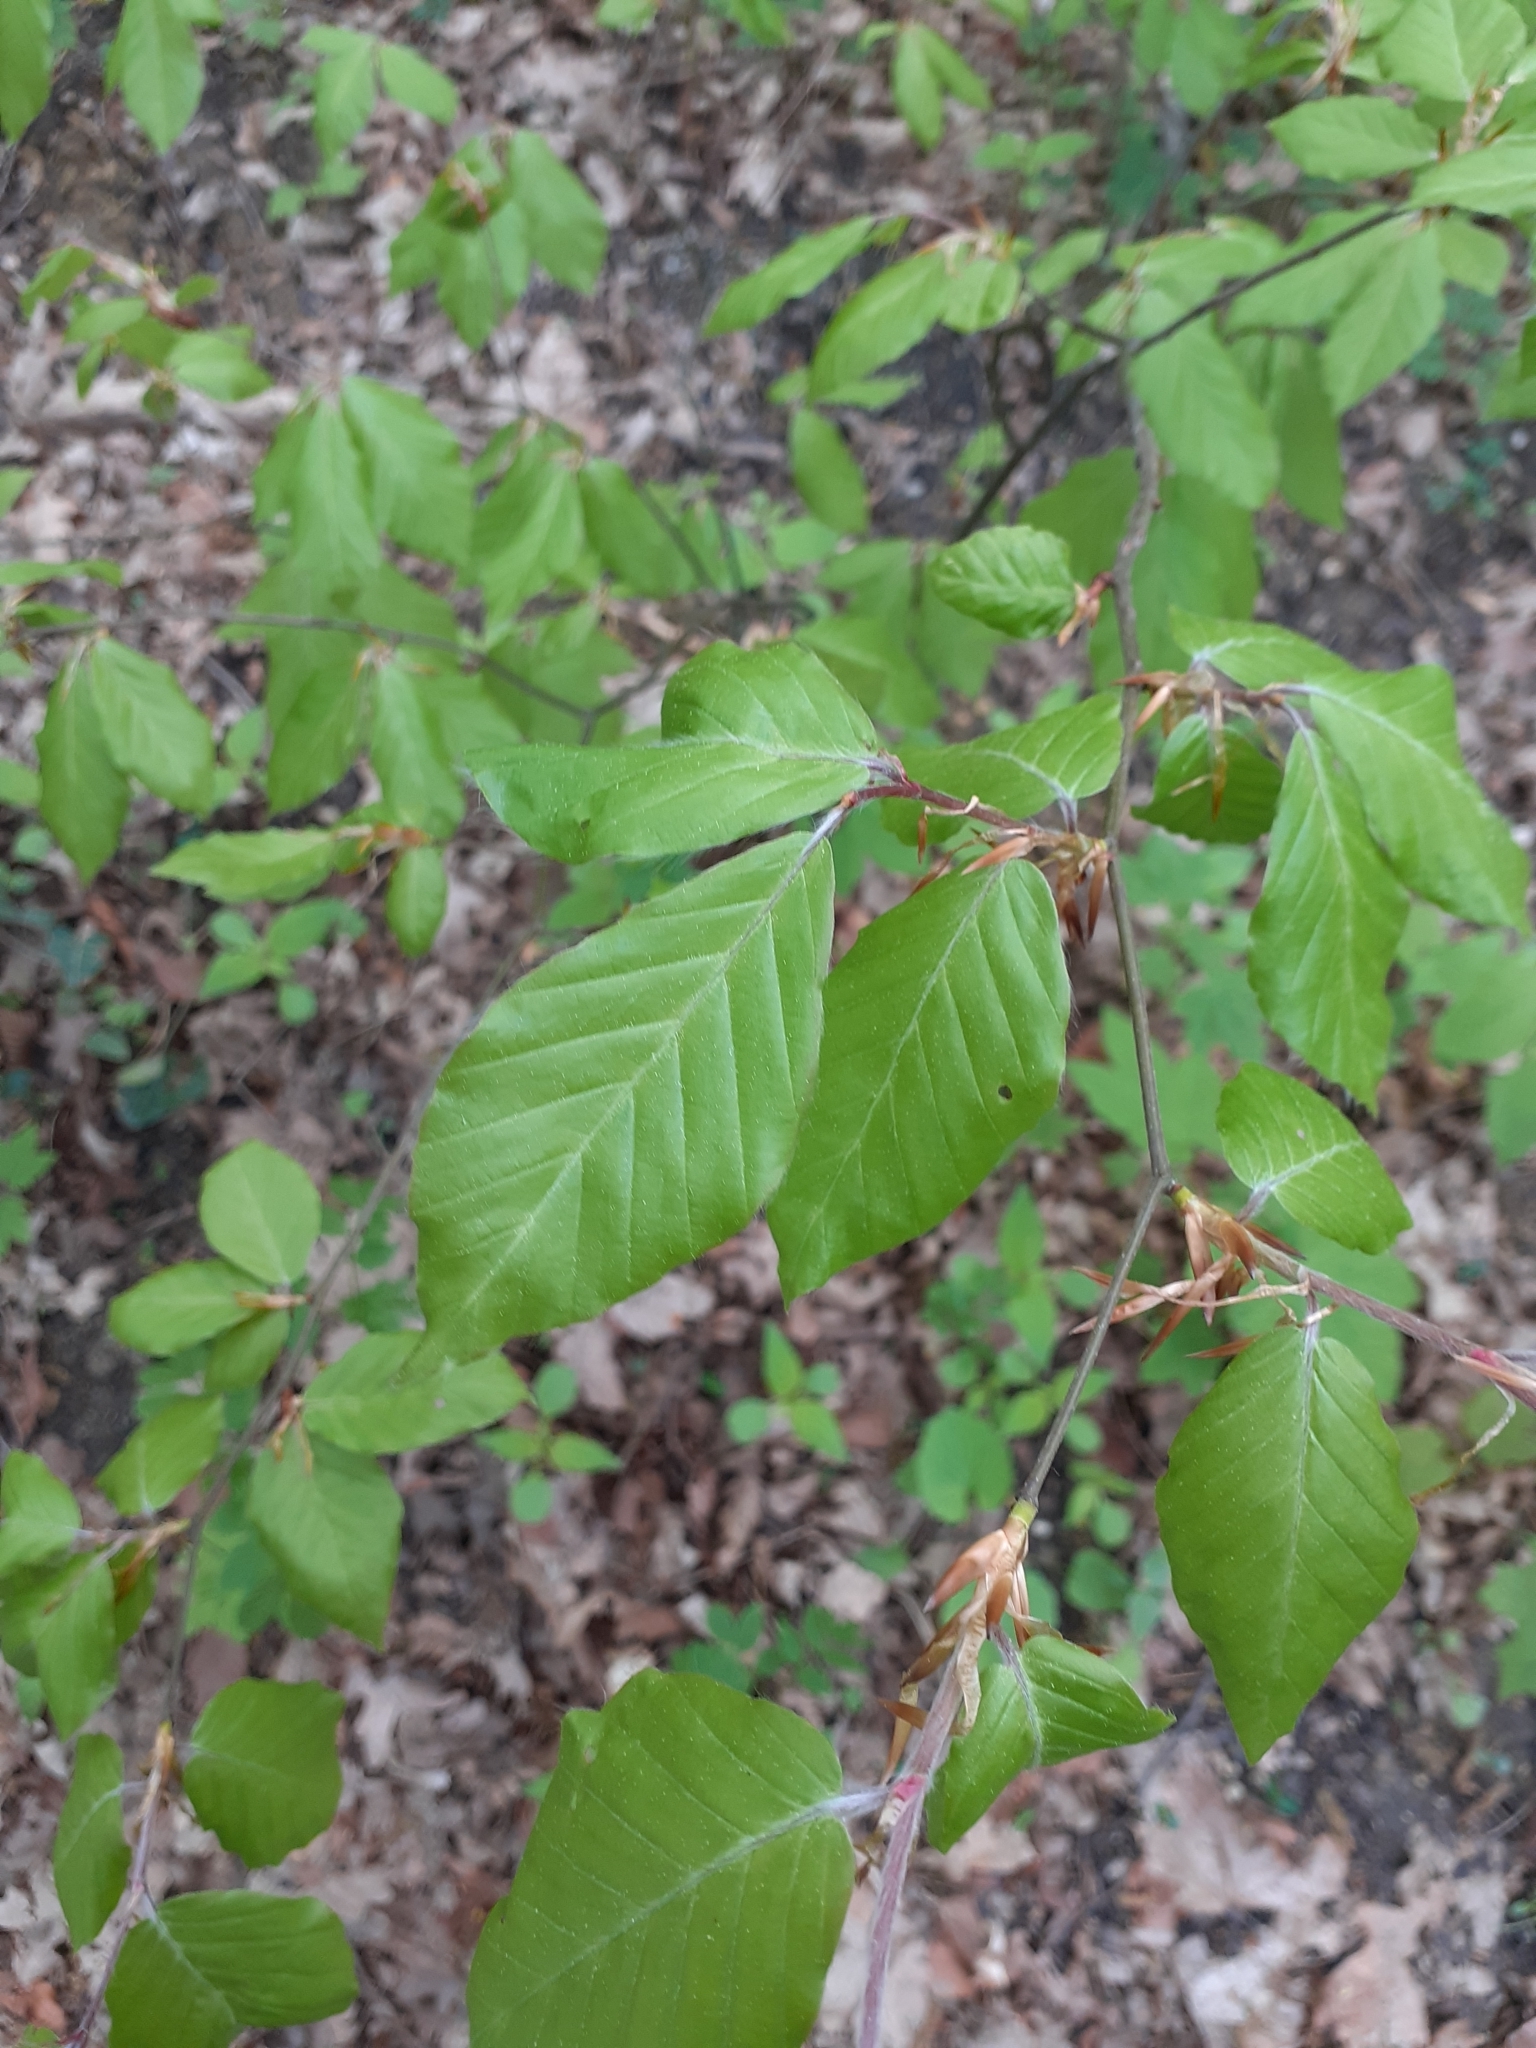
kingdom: Plantae
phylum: Tracheophyta
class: Magnoliopsida
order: Fagales
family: Fagaceae
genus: Fagus
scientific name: Fagus sylvatica
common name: Beech
